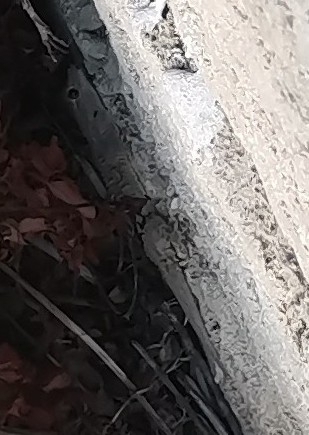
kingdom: Animalia
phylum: Chordata
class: Squamata
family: Phyllodactylidae
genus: Tarentola
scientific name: Tarentola mauritanica
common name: Moorish gecko
